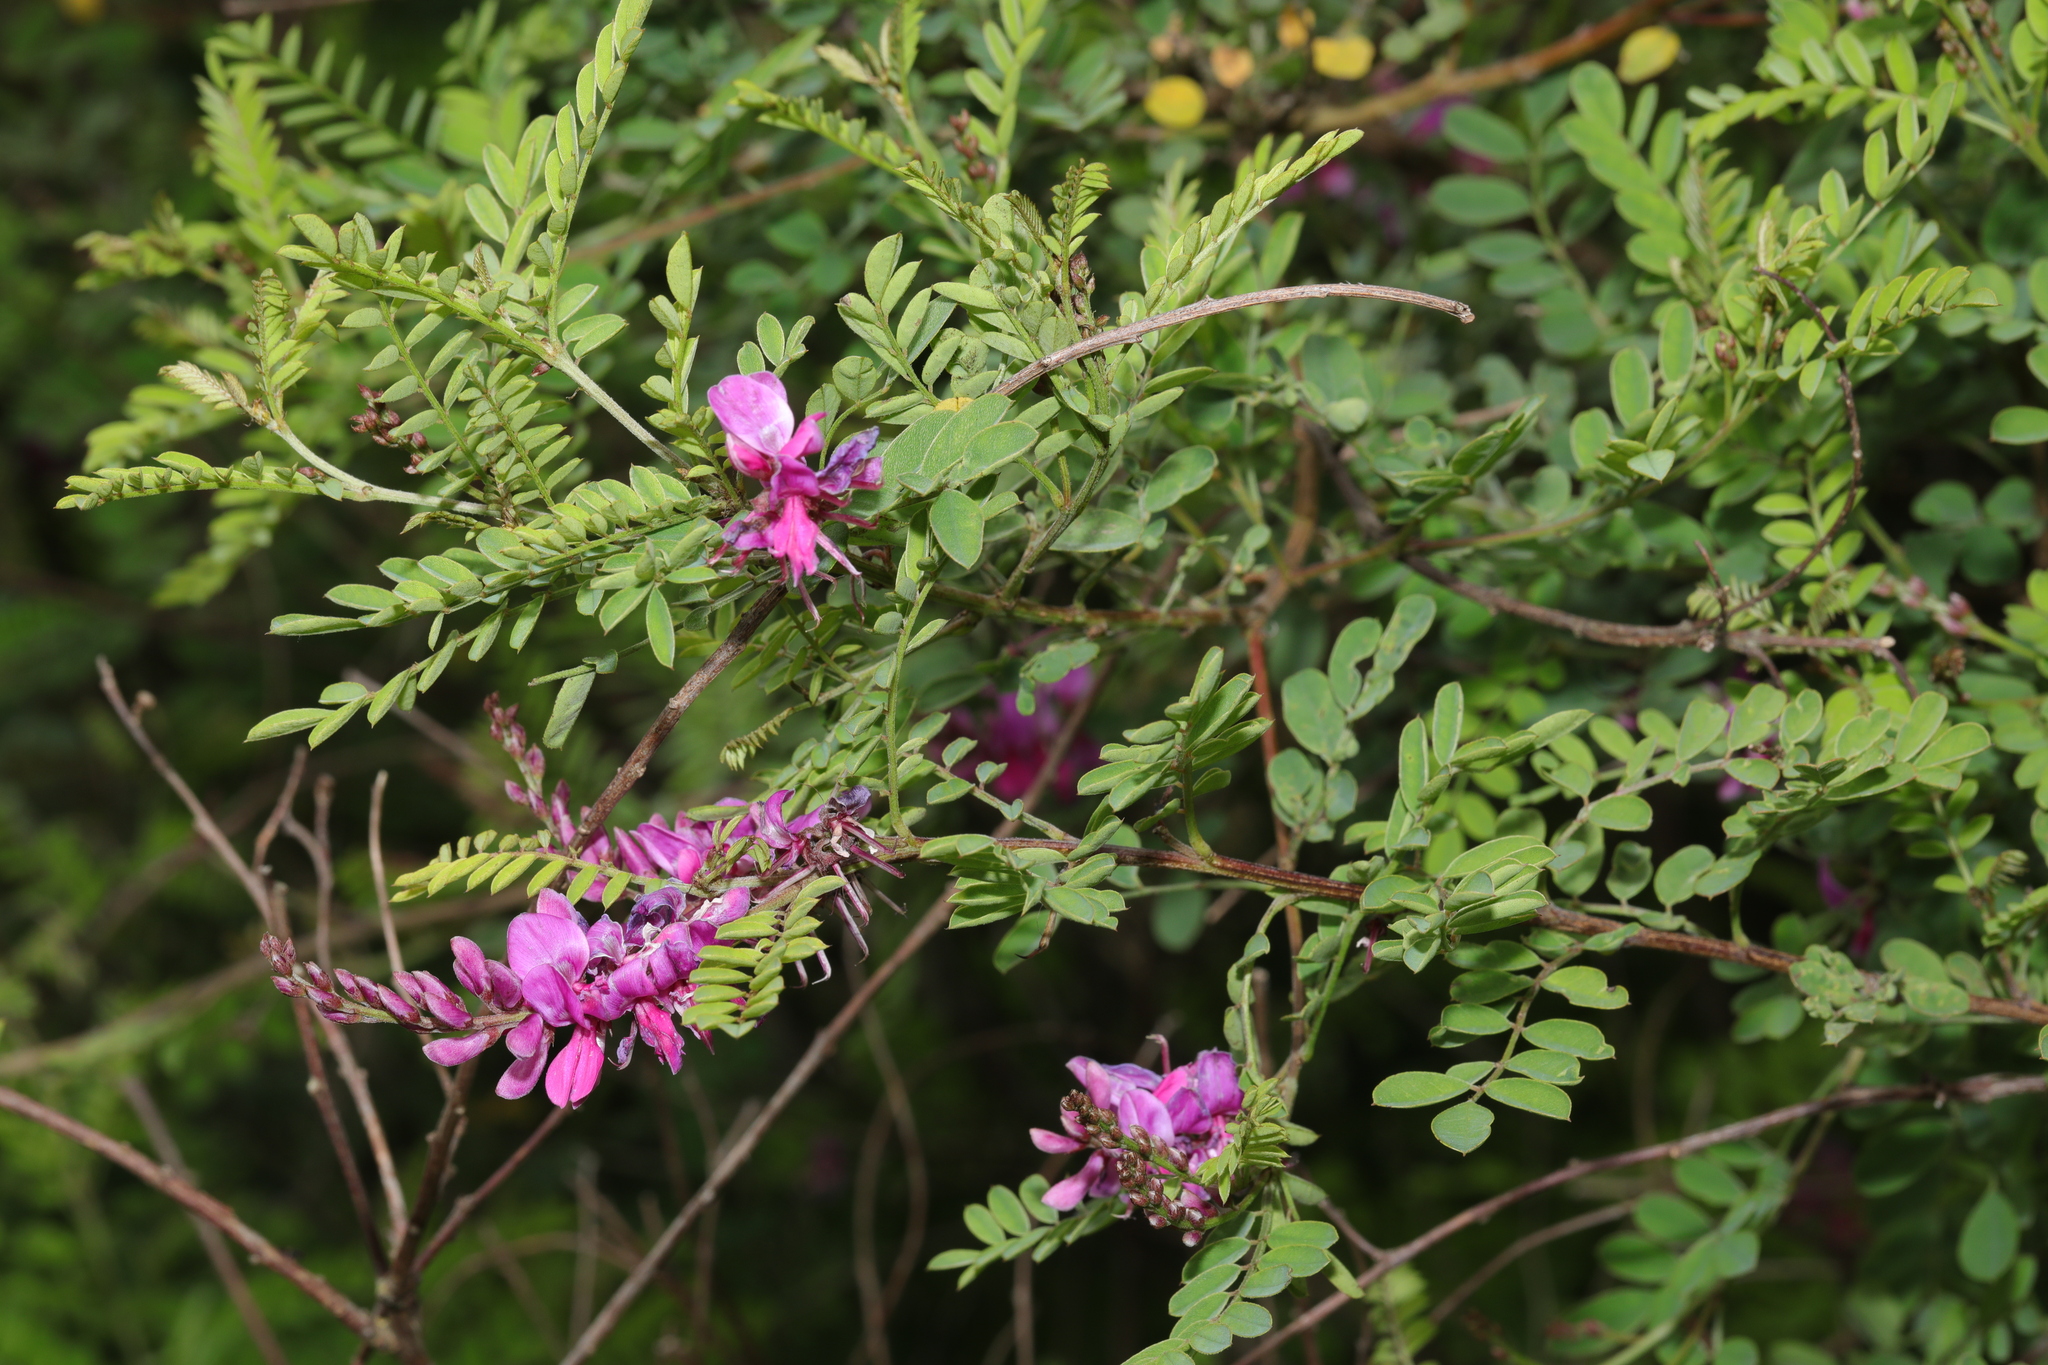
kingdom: Plantae
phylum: Tracheophyta
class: Magnoliopsida
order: Fabales
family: Fabaceae
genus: Indigofera
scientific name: Indigofera heterantha
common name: Himalayan indigo
